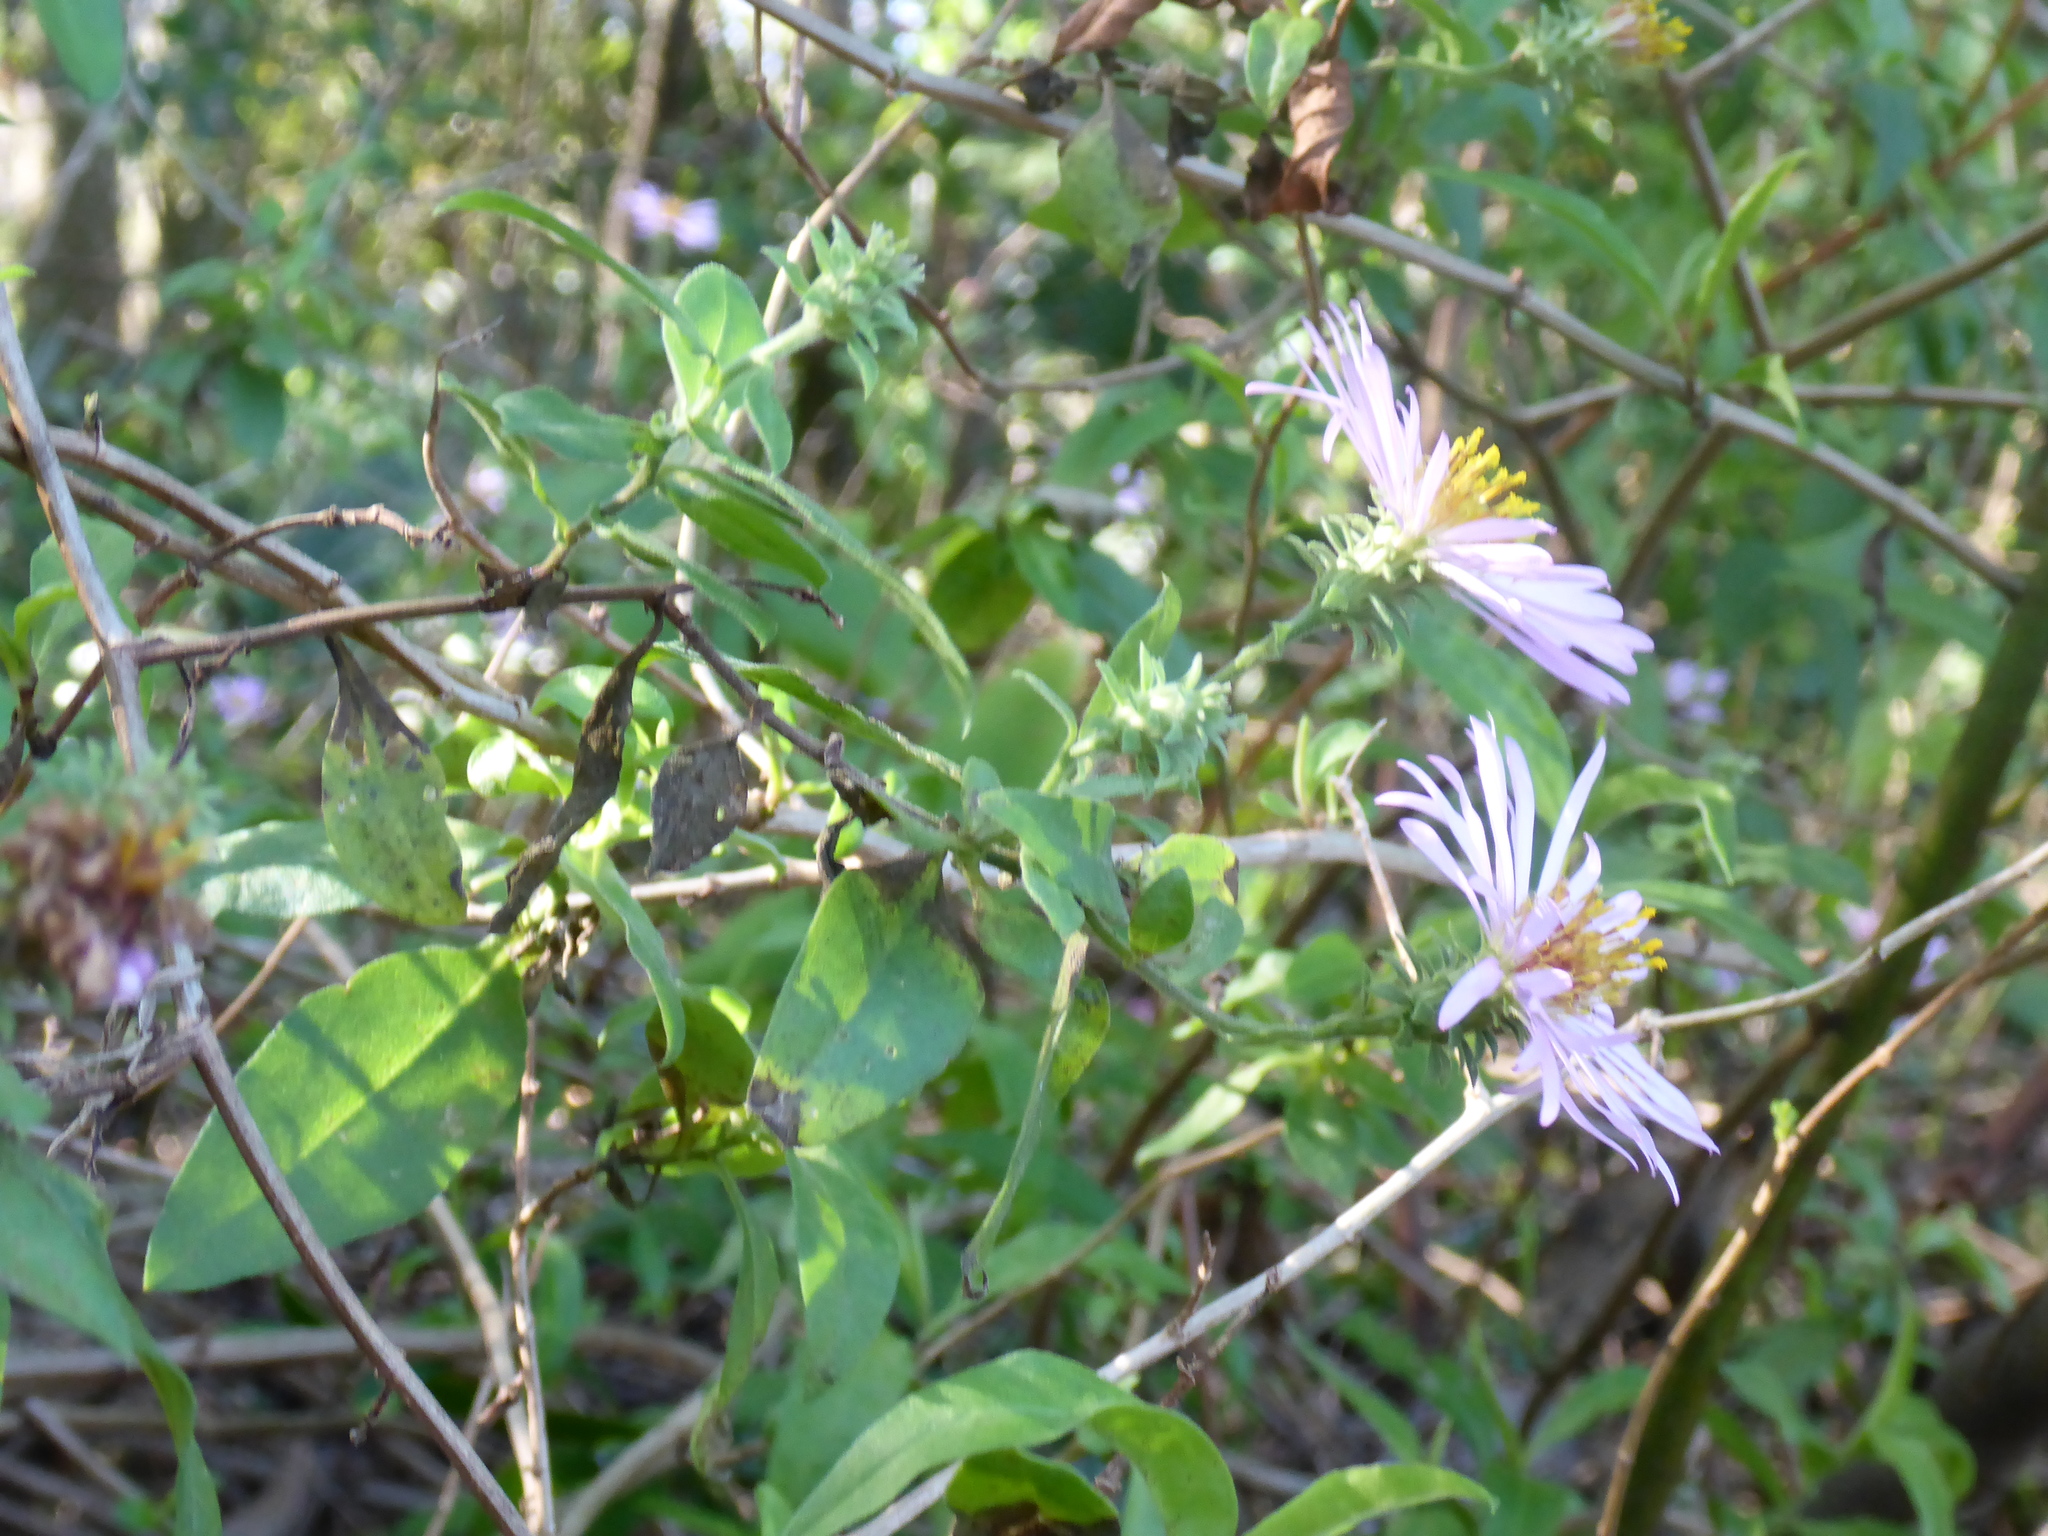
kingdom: Plantae
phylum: Tracheophyta
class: Magnoliopsida
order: Asterales
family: Asteraceae
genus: Ampelaster
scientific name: Ampelaster carolinianus
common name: Climbing aster
